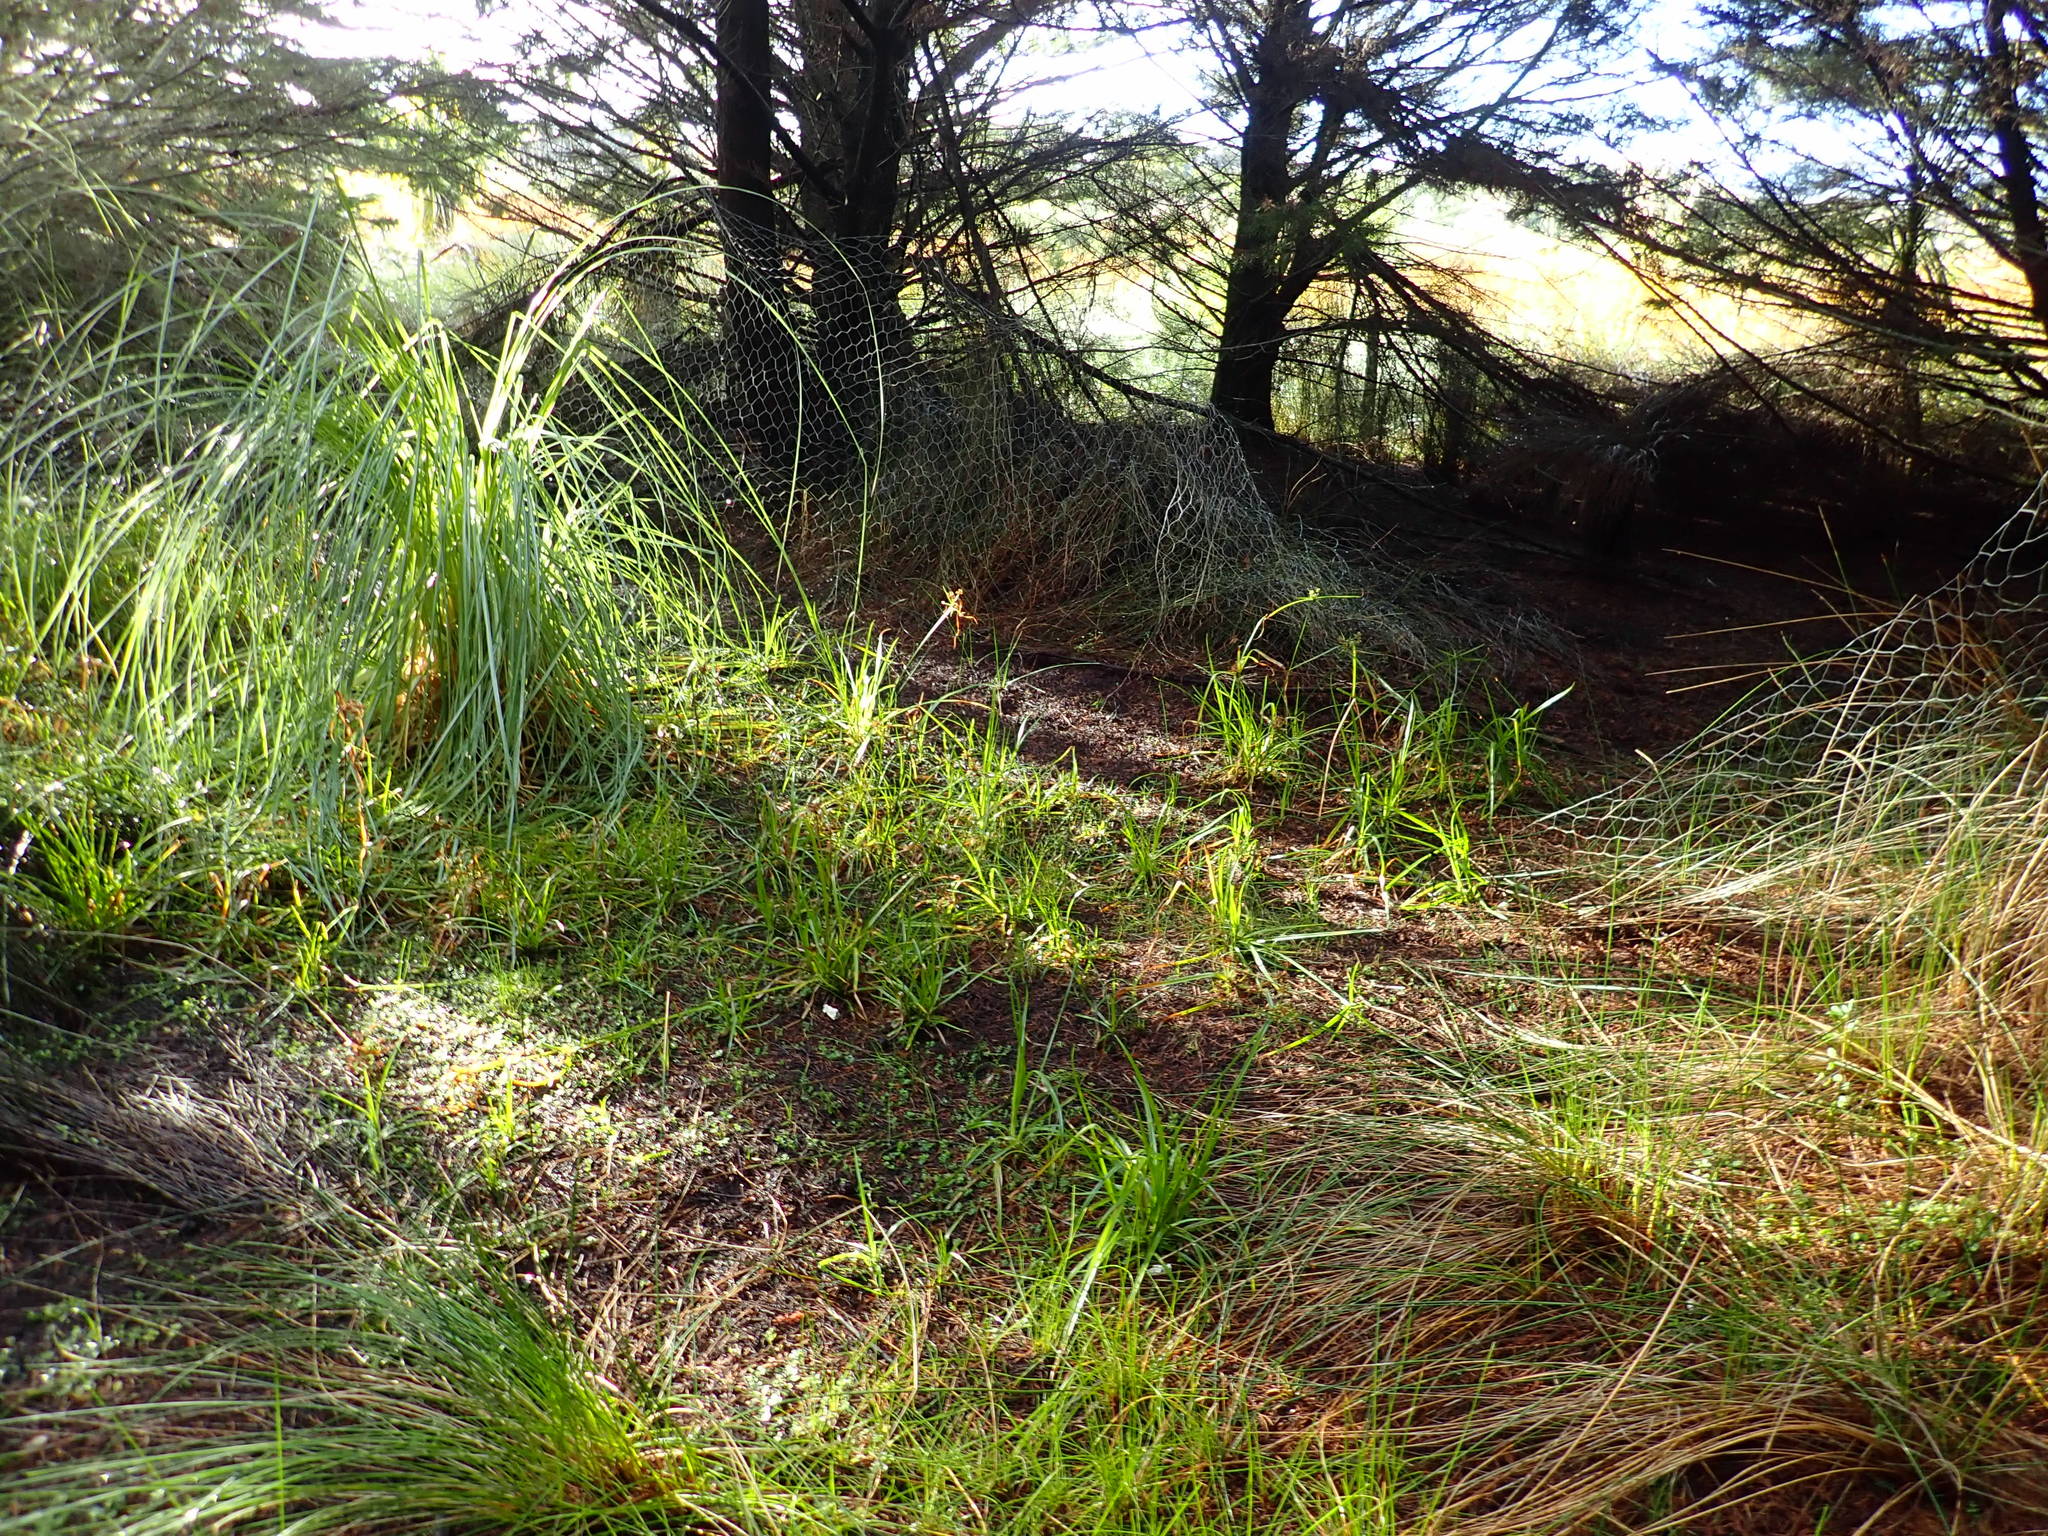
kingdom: Plantae
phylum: Tracheophyta
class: Liliopsida
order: Poales
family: Cyperaceae
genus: Cyperus
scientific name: Cyperus eragrostis
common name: Tall flatsedge
